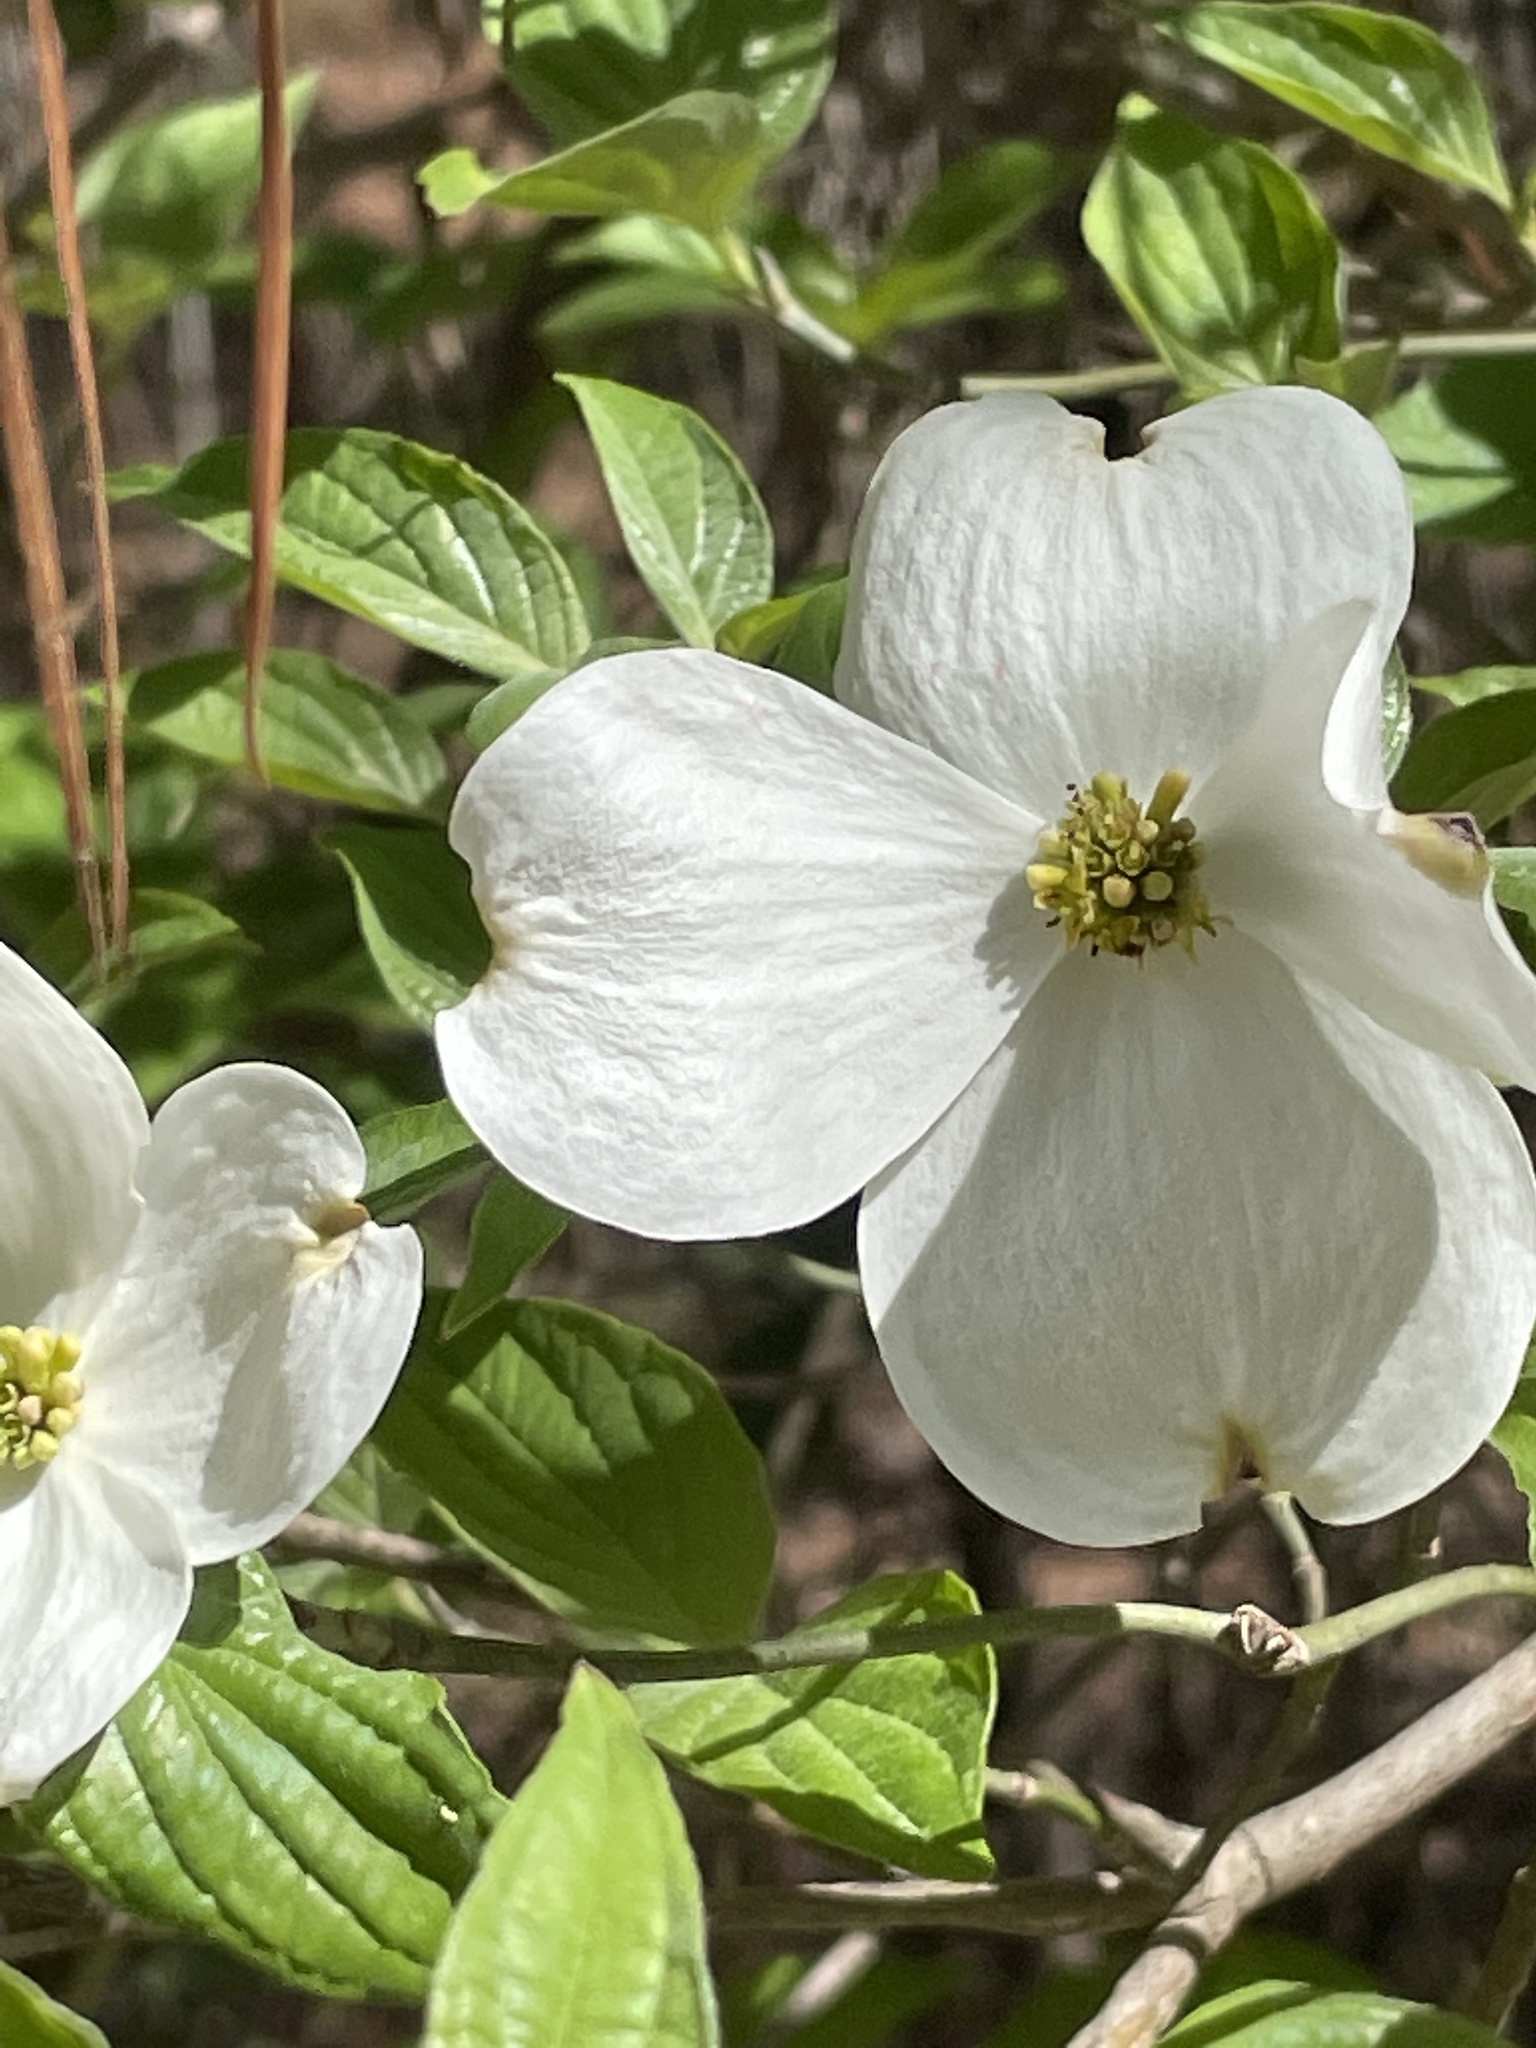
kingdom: Plantae
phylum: Tracheophyta
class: Magnoliopsida
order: Cornales
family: Cornaceae
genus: Cornus
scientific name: Cornus florida
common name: Flowering dogwood
